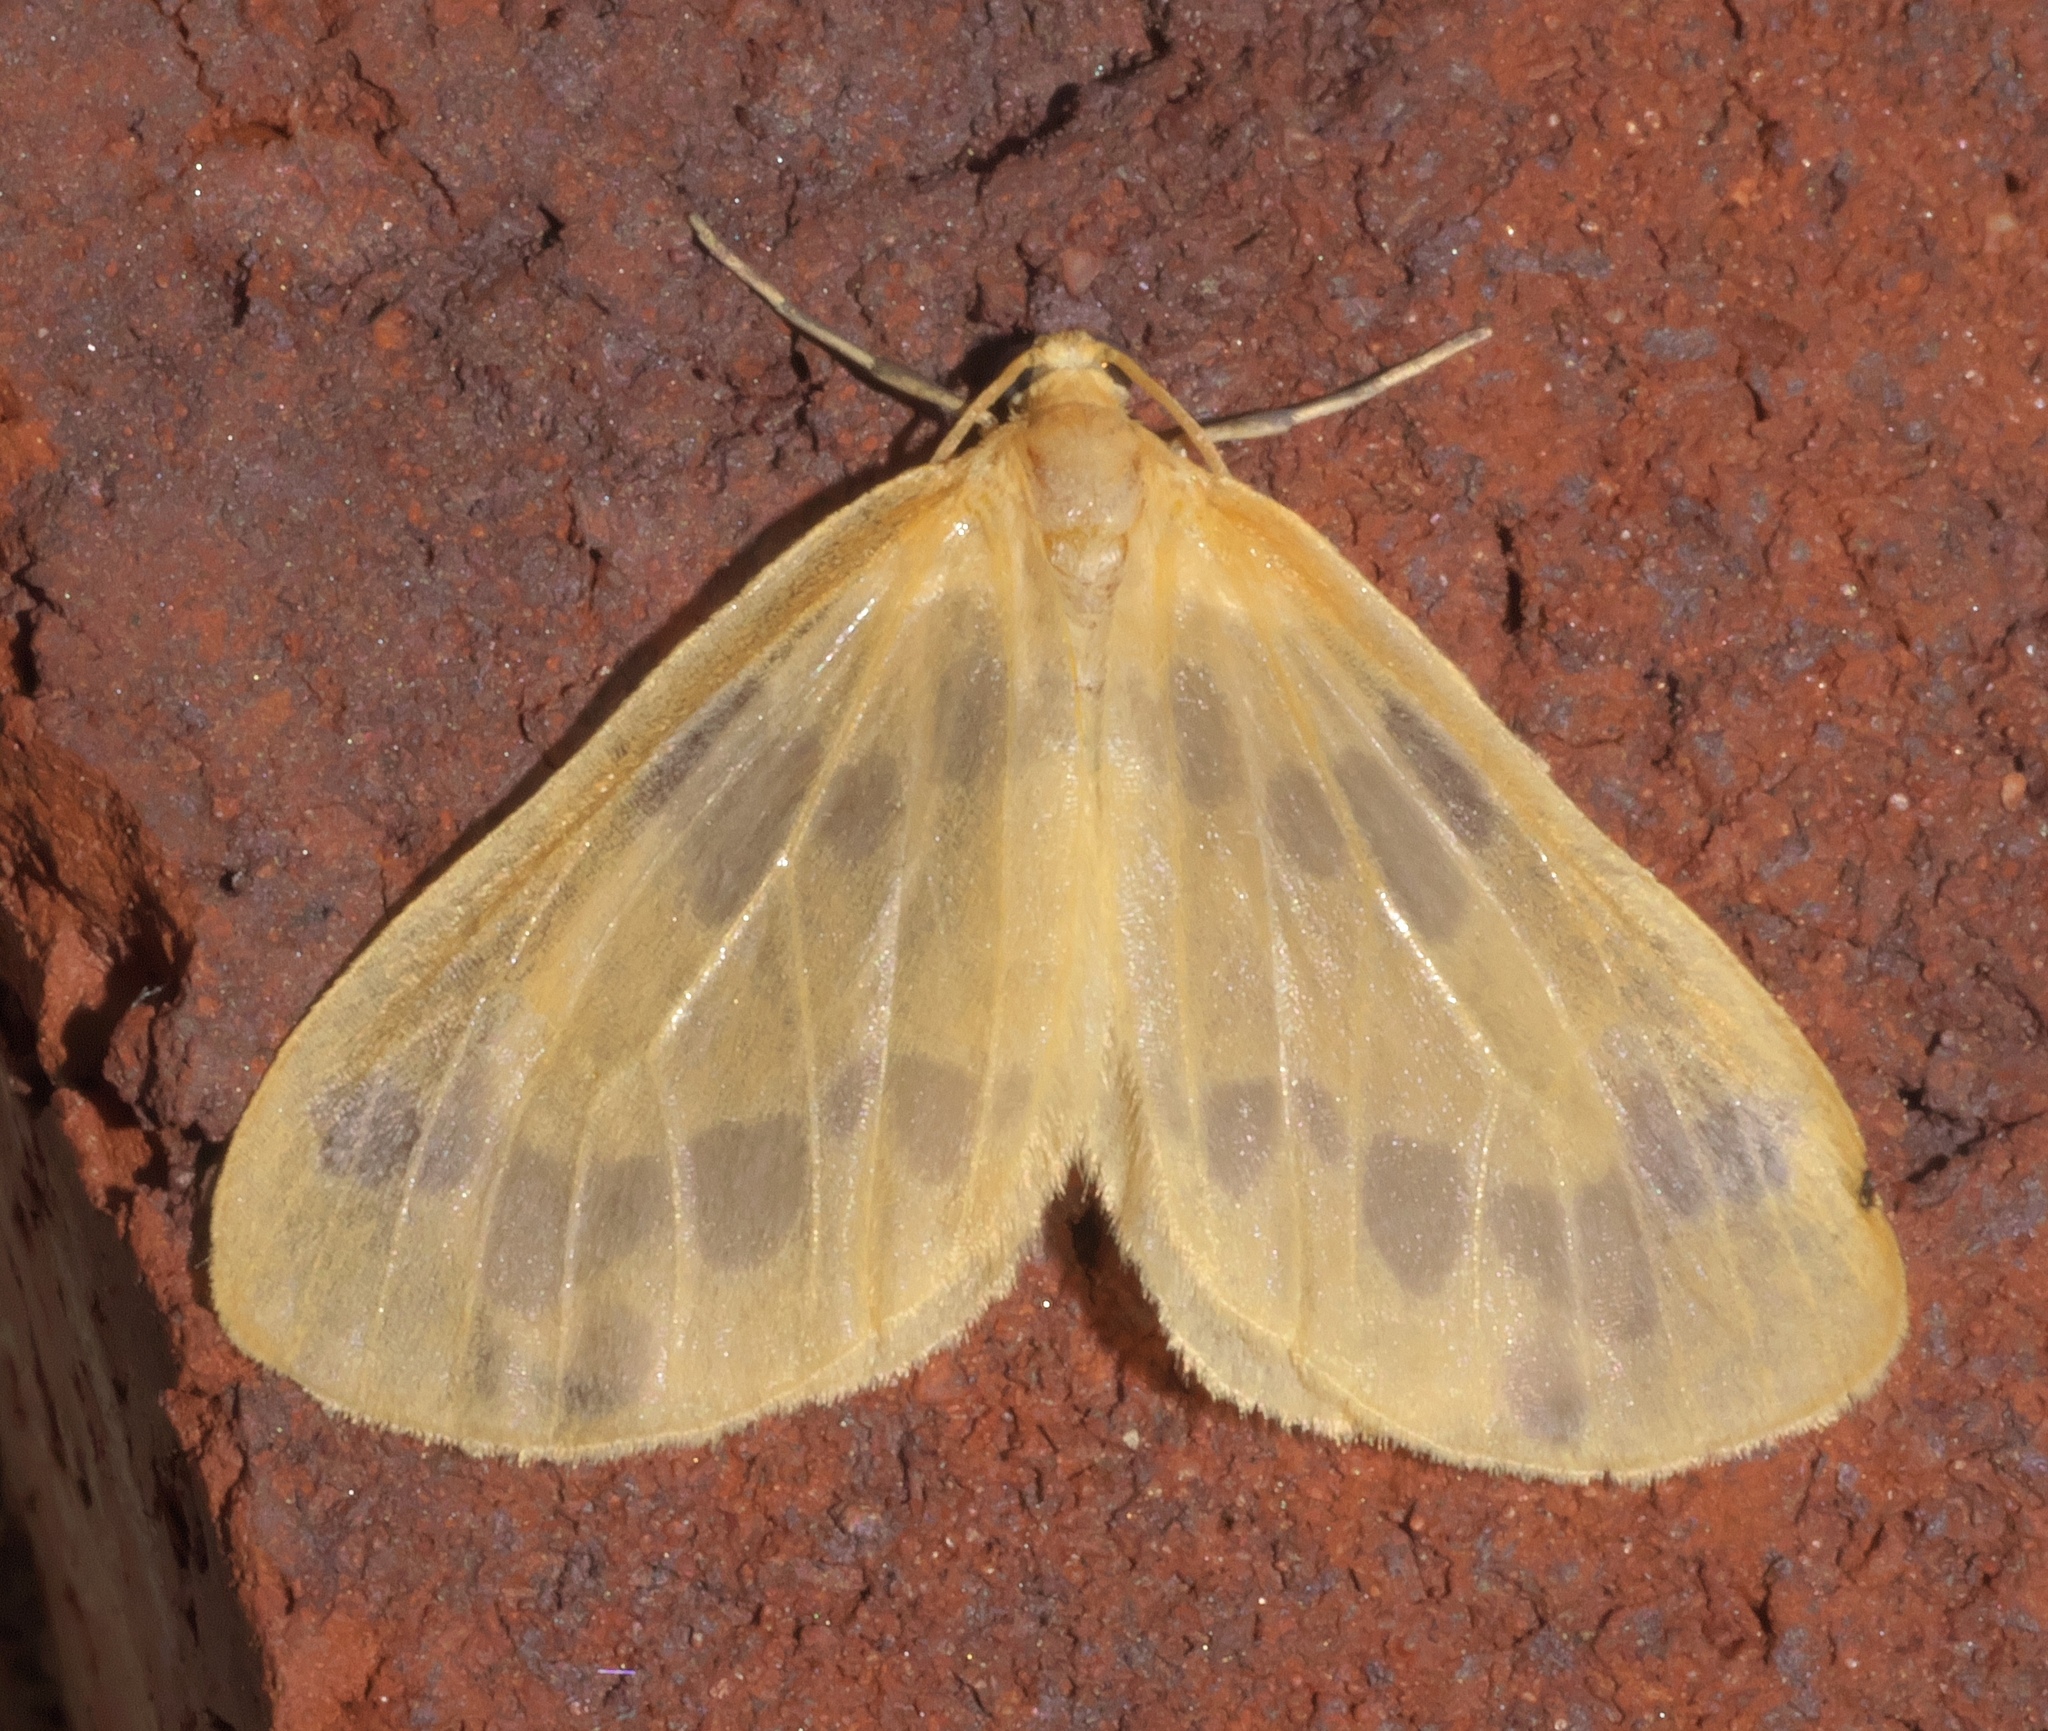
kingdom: Animalia
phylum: Arthropoda
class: Insecta
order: Lepidoptera
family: Geometridae
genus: Eubaphe
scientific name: Eubaphe mendica
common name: Beggar
